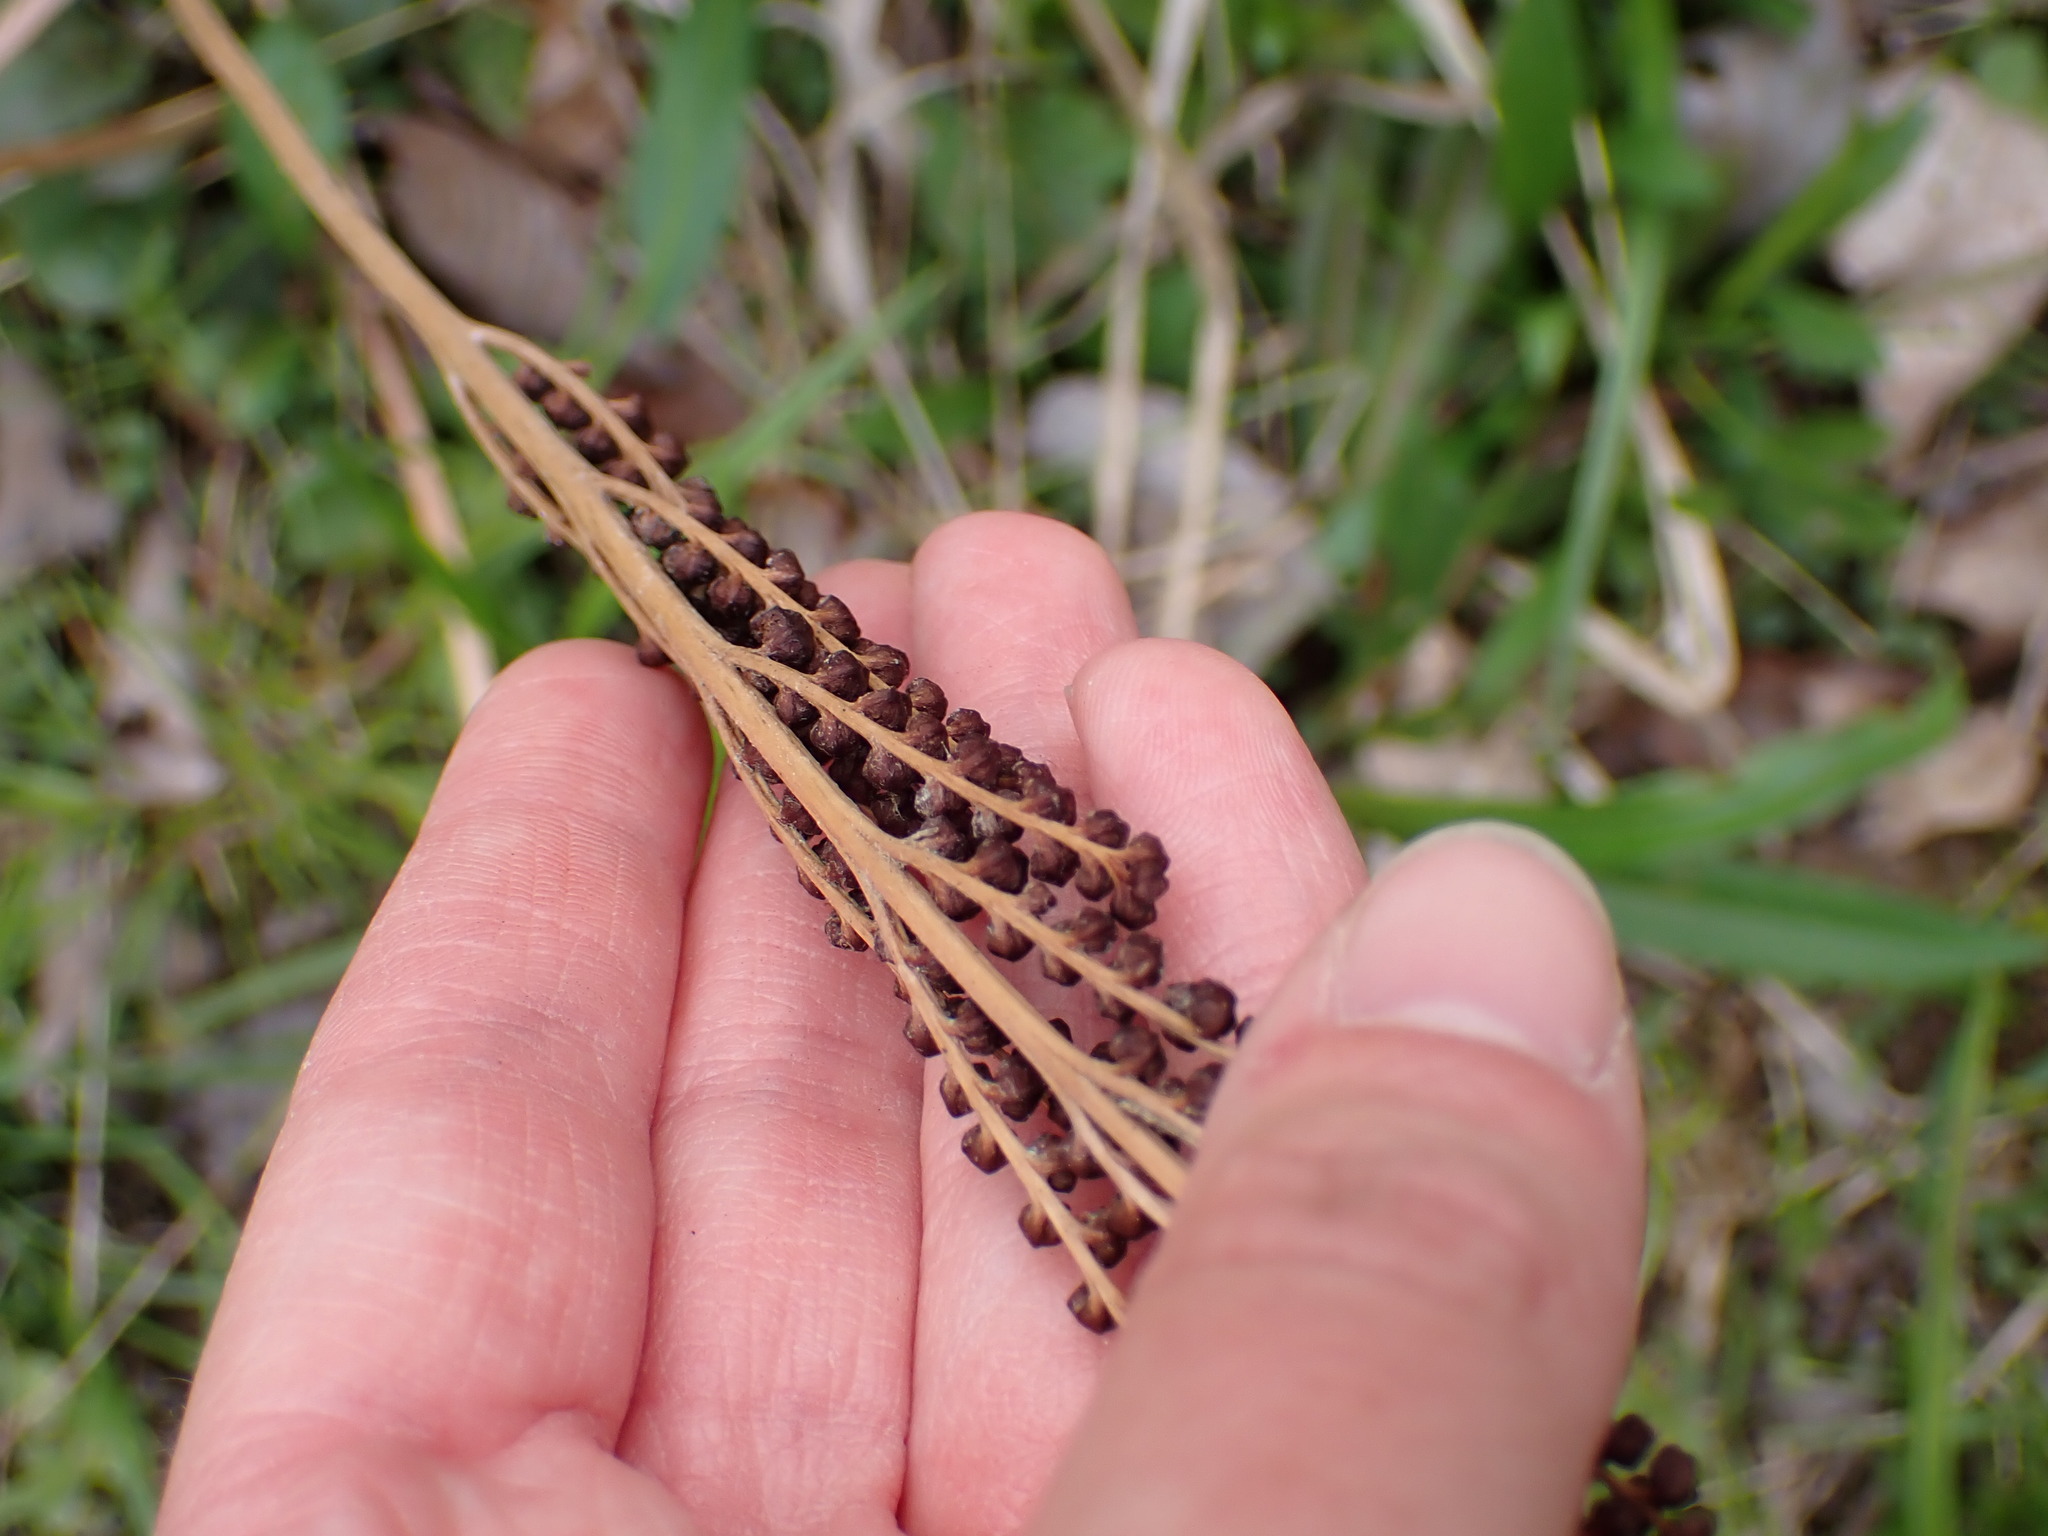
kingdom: Plantae
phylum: Tracheophyta
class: Polypodiopsida
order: Polypodiales
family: Onocleaceae
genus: Onoclea
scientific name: Onoclea sensibilis
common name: Sensitive fern
